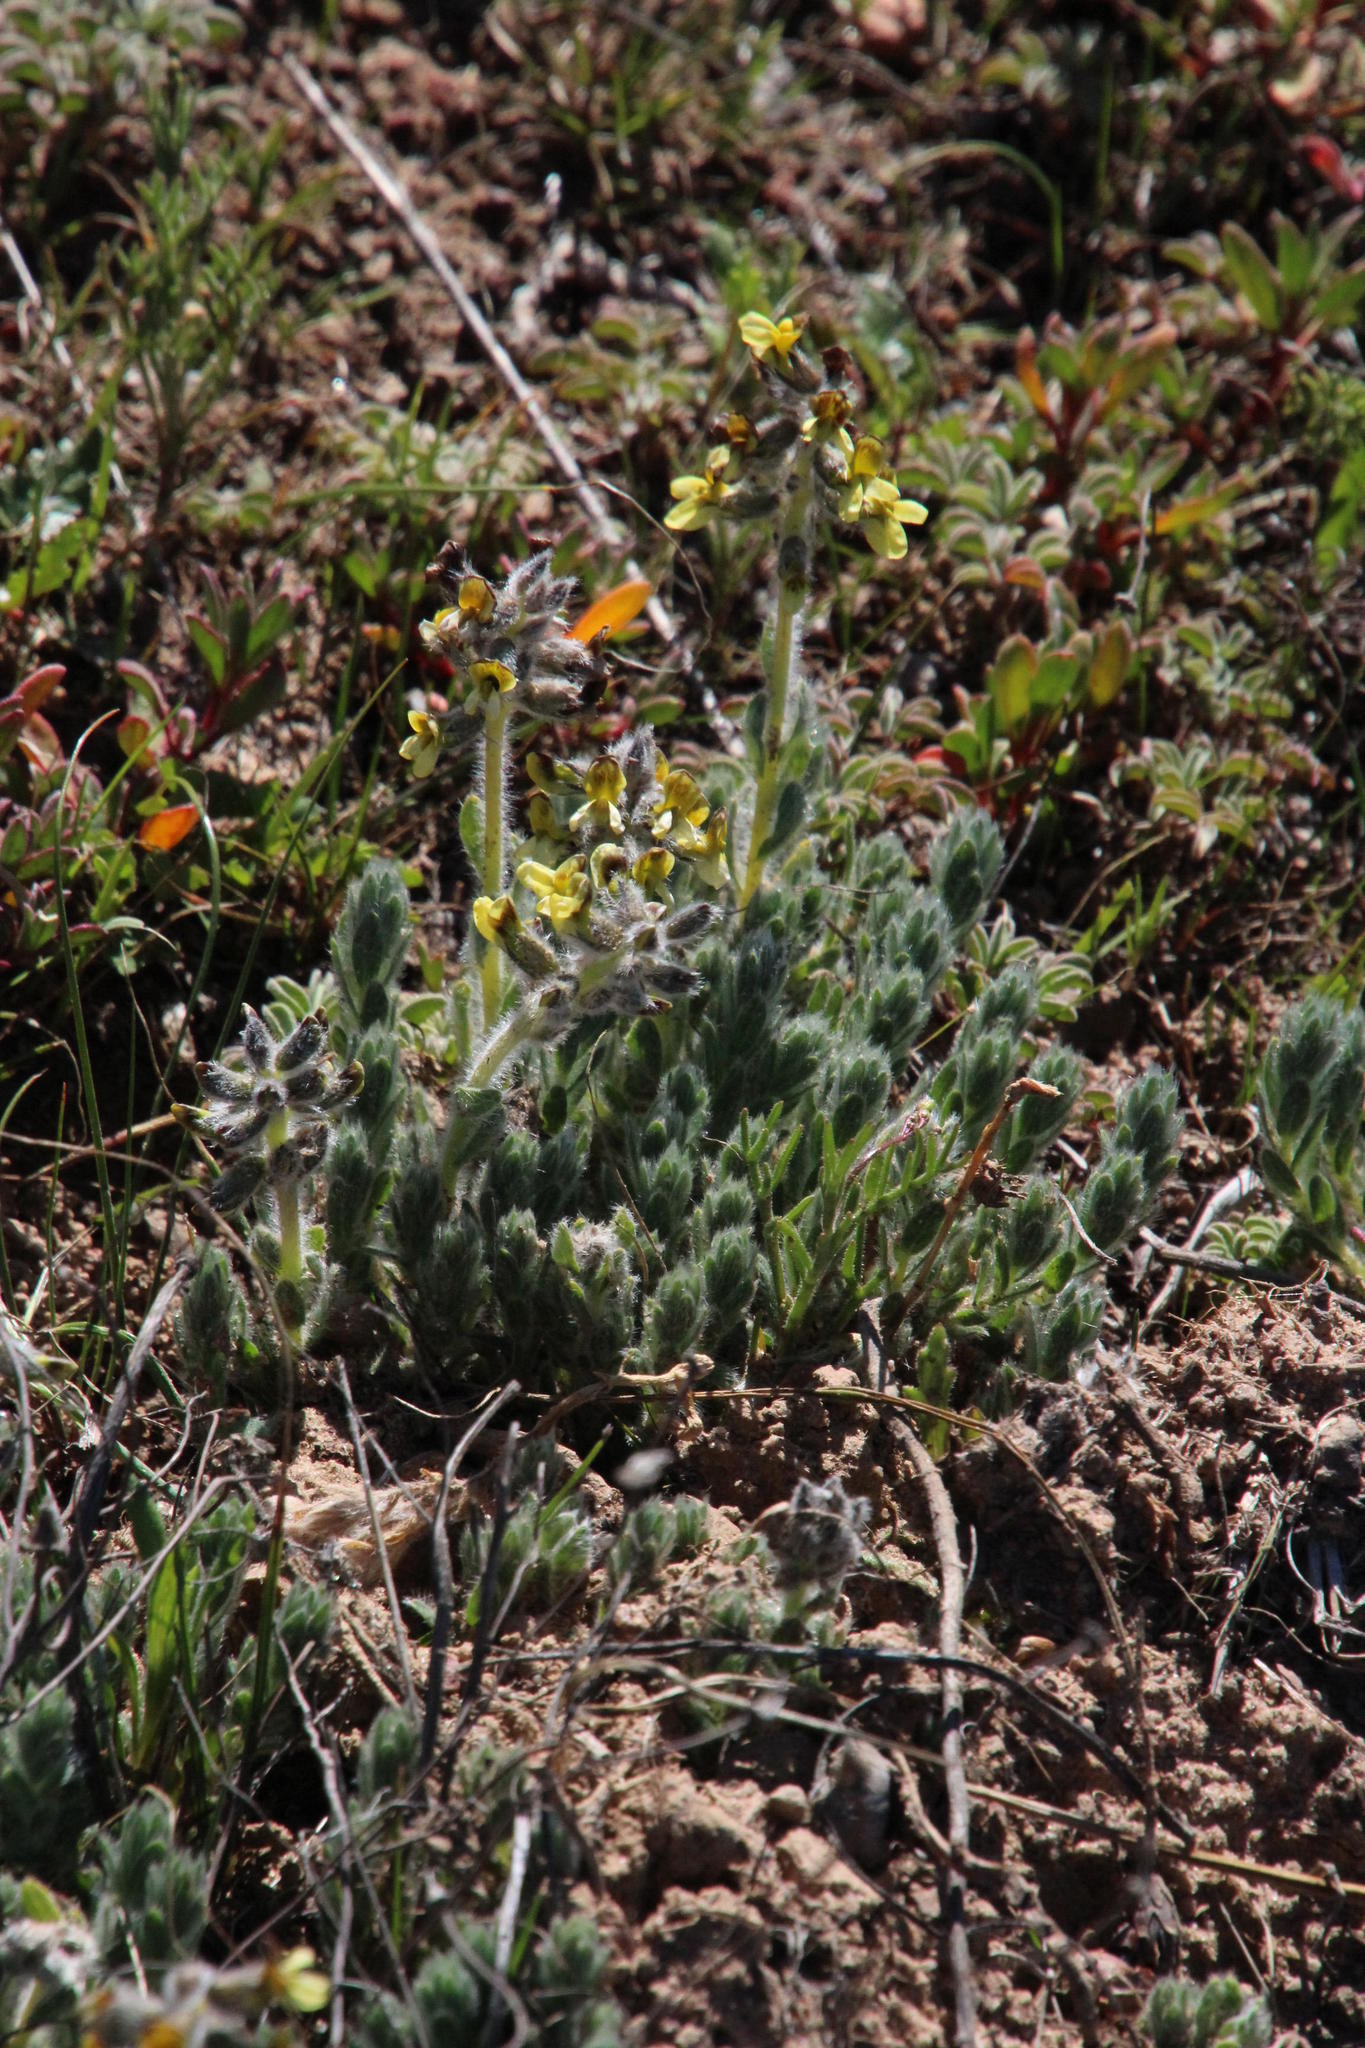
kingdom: Plantae
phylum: Tracheophyta
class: Magnoliopsida
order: Fabales
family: Fabaceae
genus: Dolichos
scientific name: Dolichos decumbens
